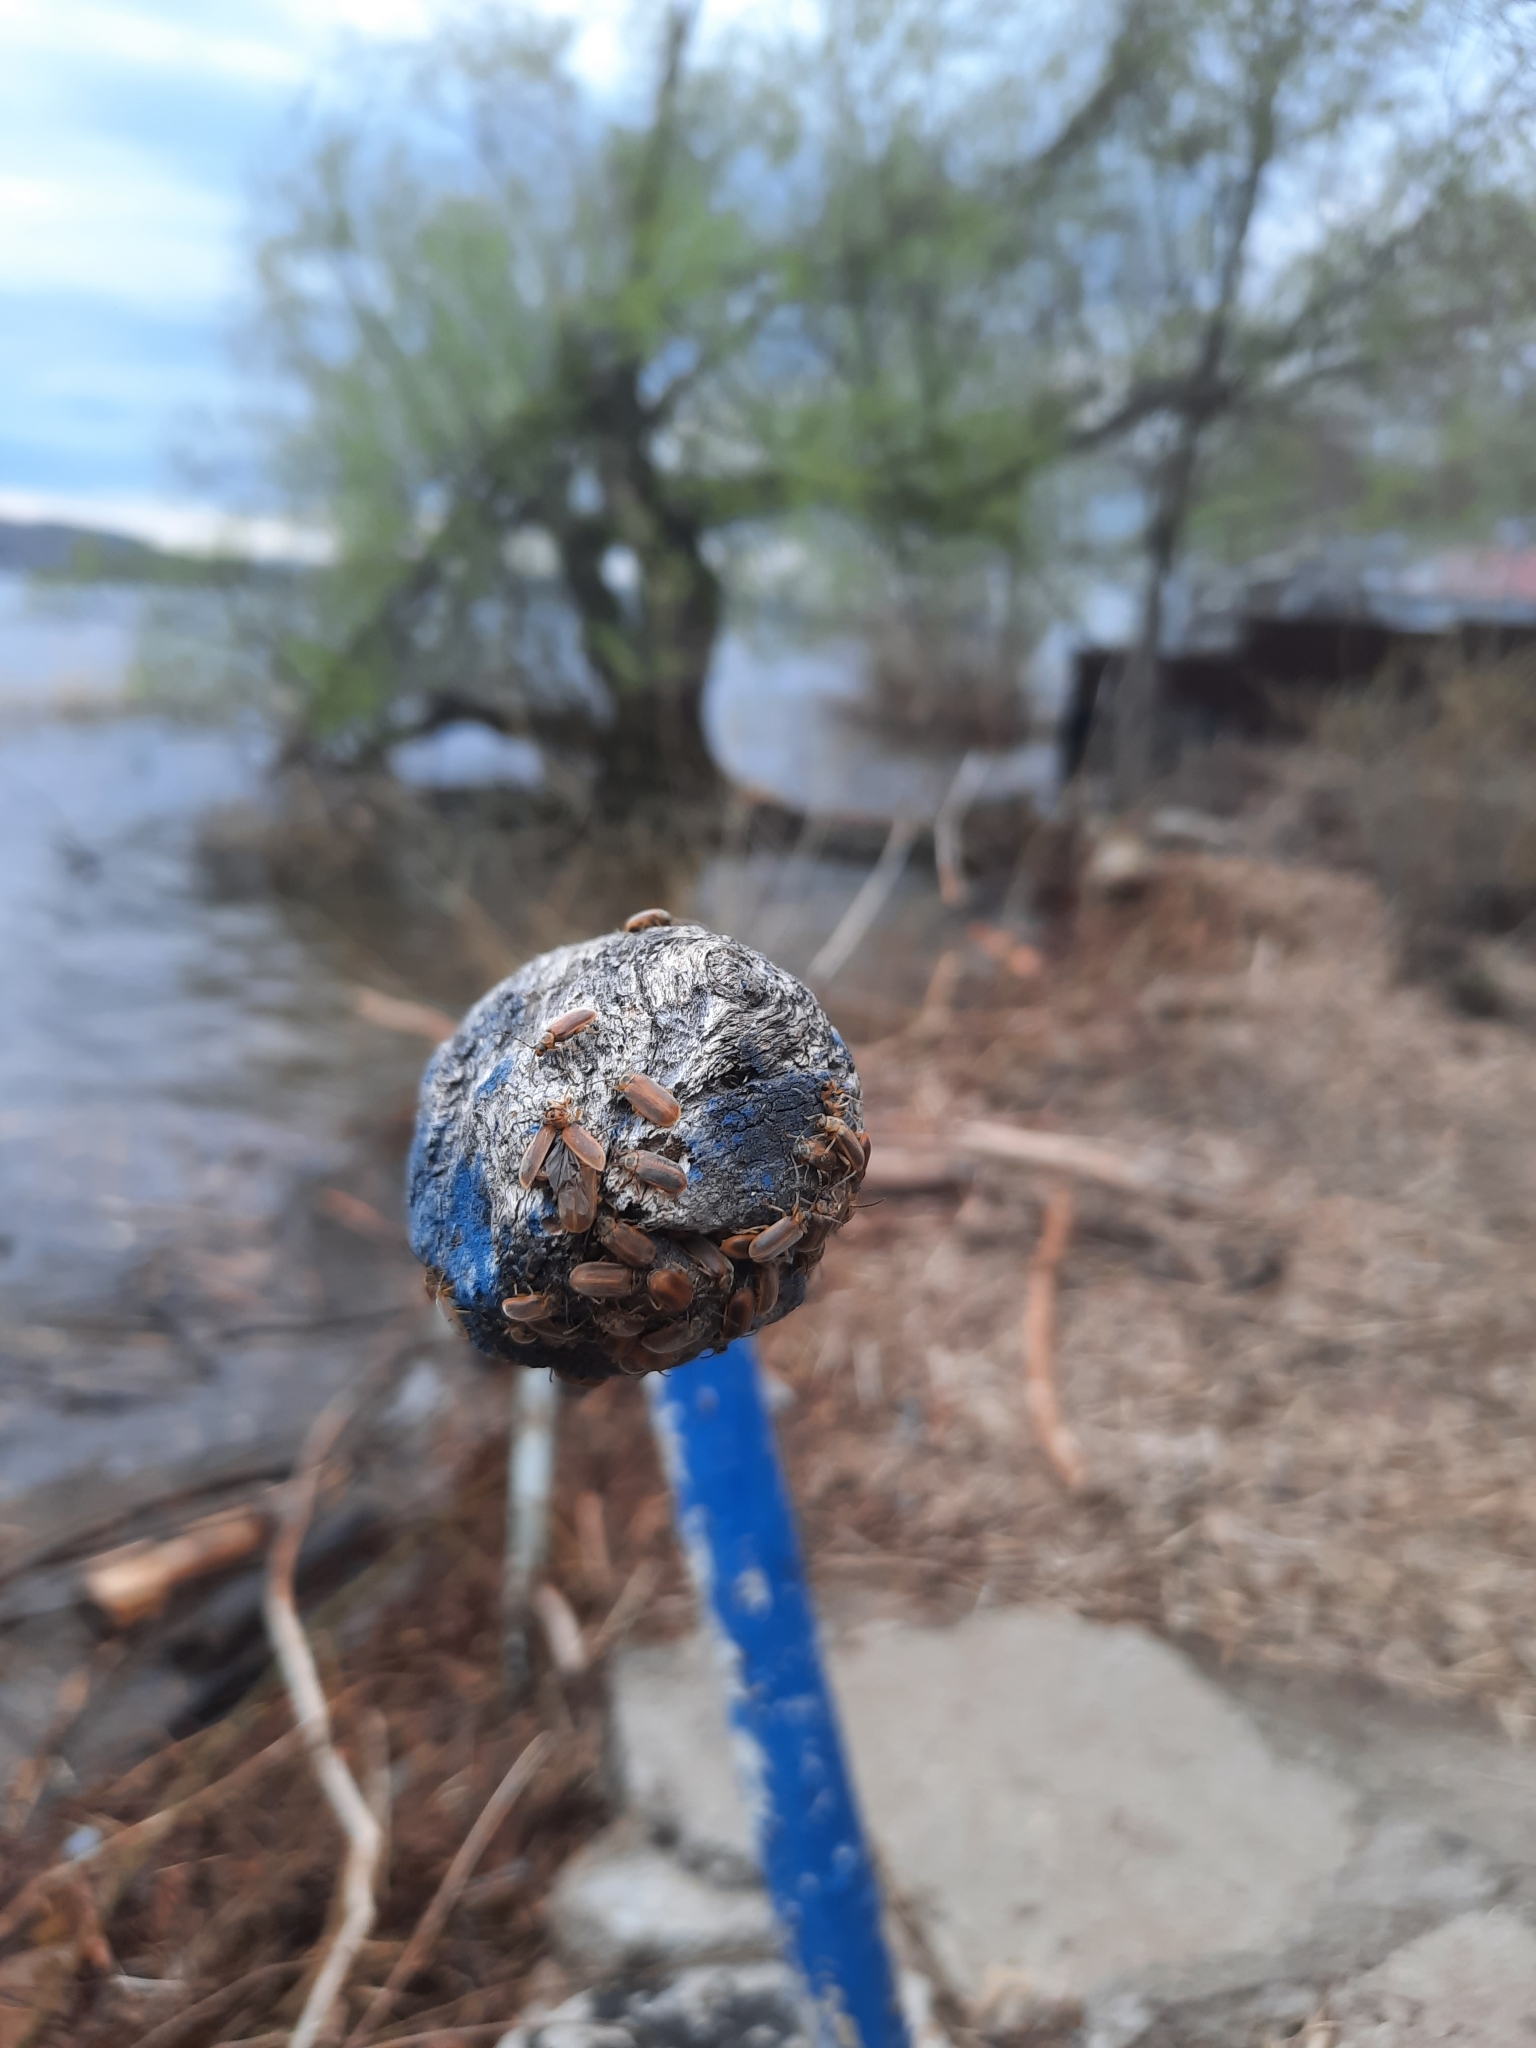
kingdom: Animalia
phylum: Arthropoda
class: Insecta
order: Coleoptera
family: Chrysomelidae
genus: Galerucella
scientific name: Galerucella lineola
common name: Brown willow beetle
